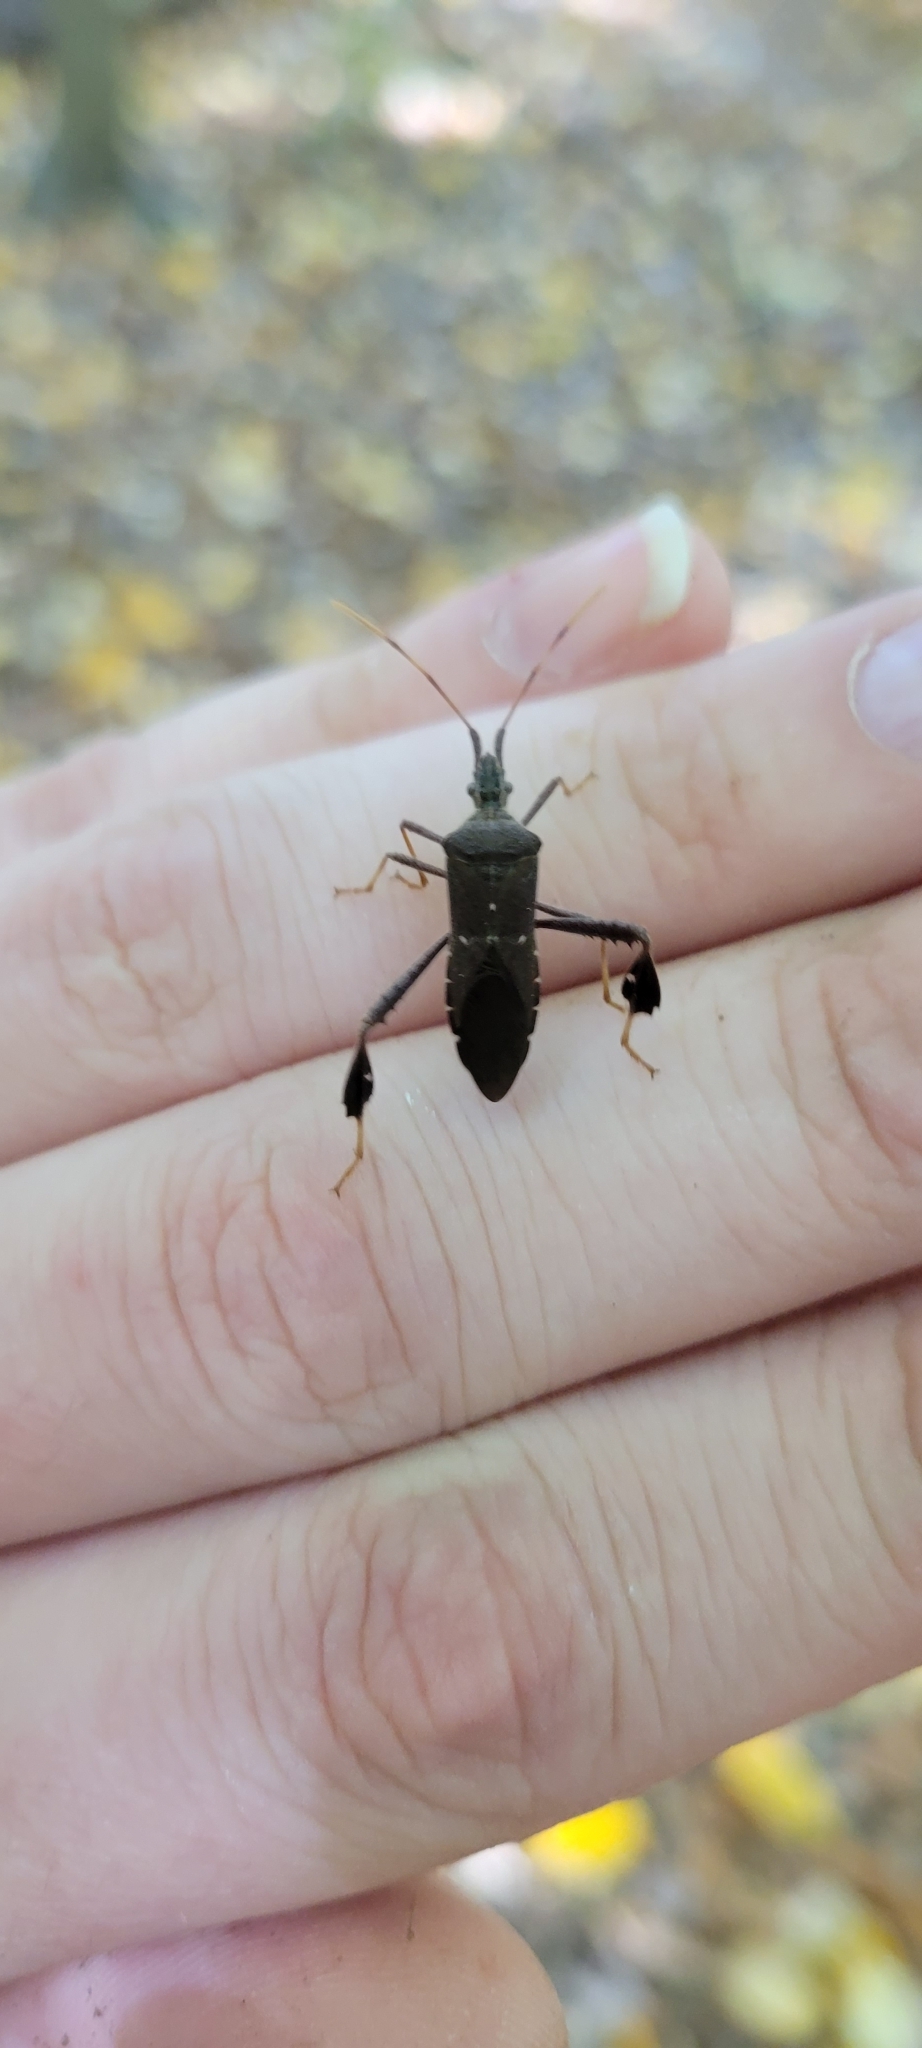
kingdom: Animalia
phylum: Arthropoda
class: Insecta
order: Hemiptera
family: Coreidae
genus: Leptoglossus
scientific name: Leptoglossus oppositus
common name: Northern leaf-footed bug
